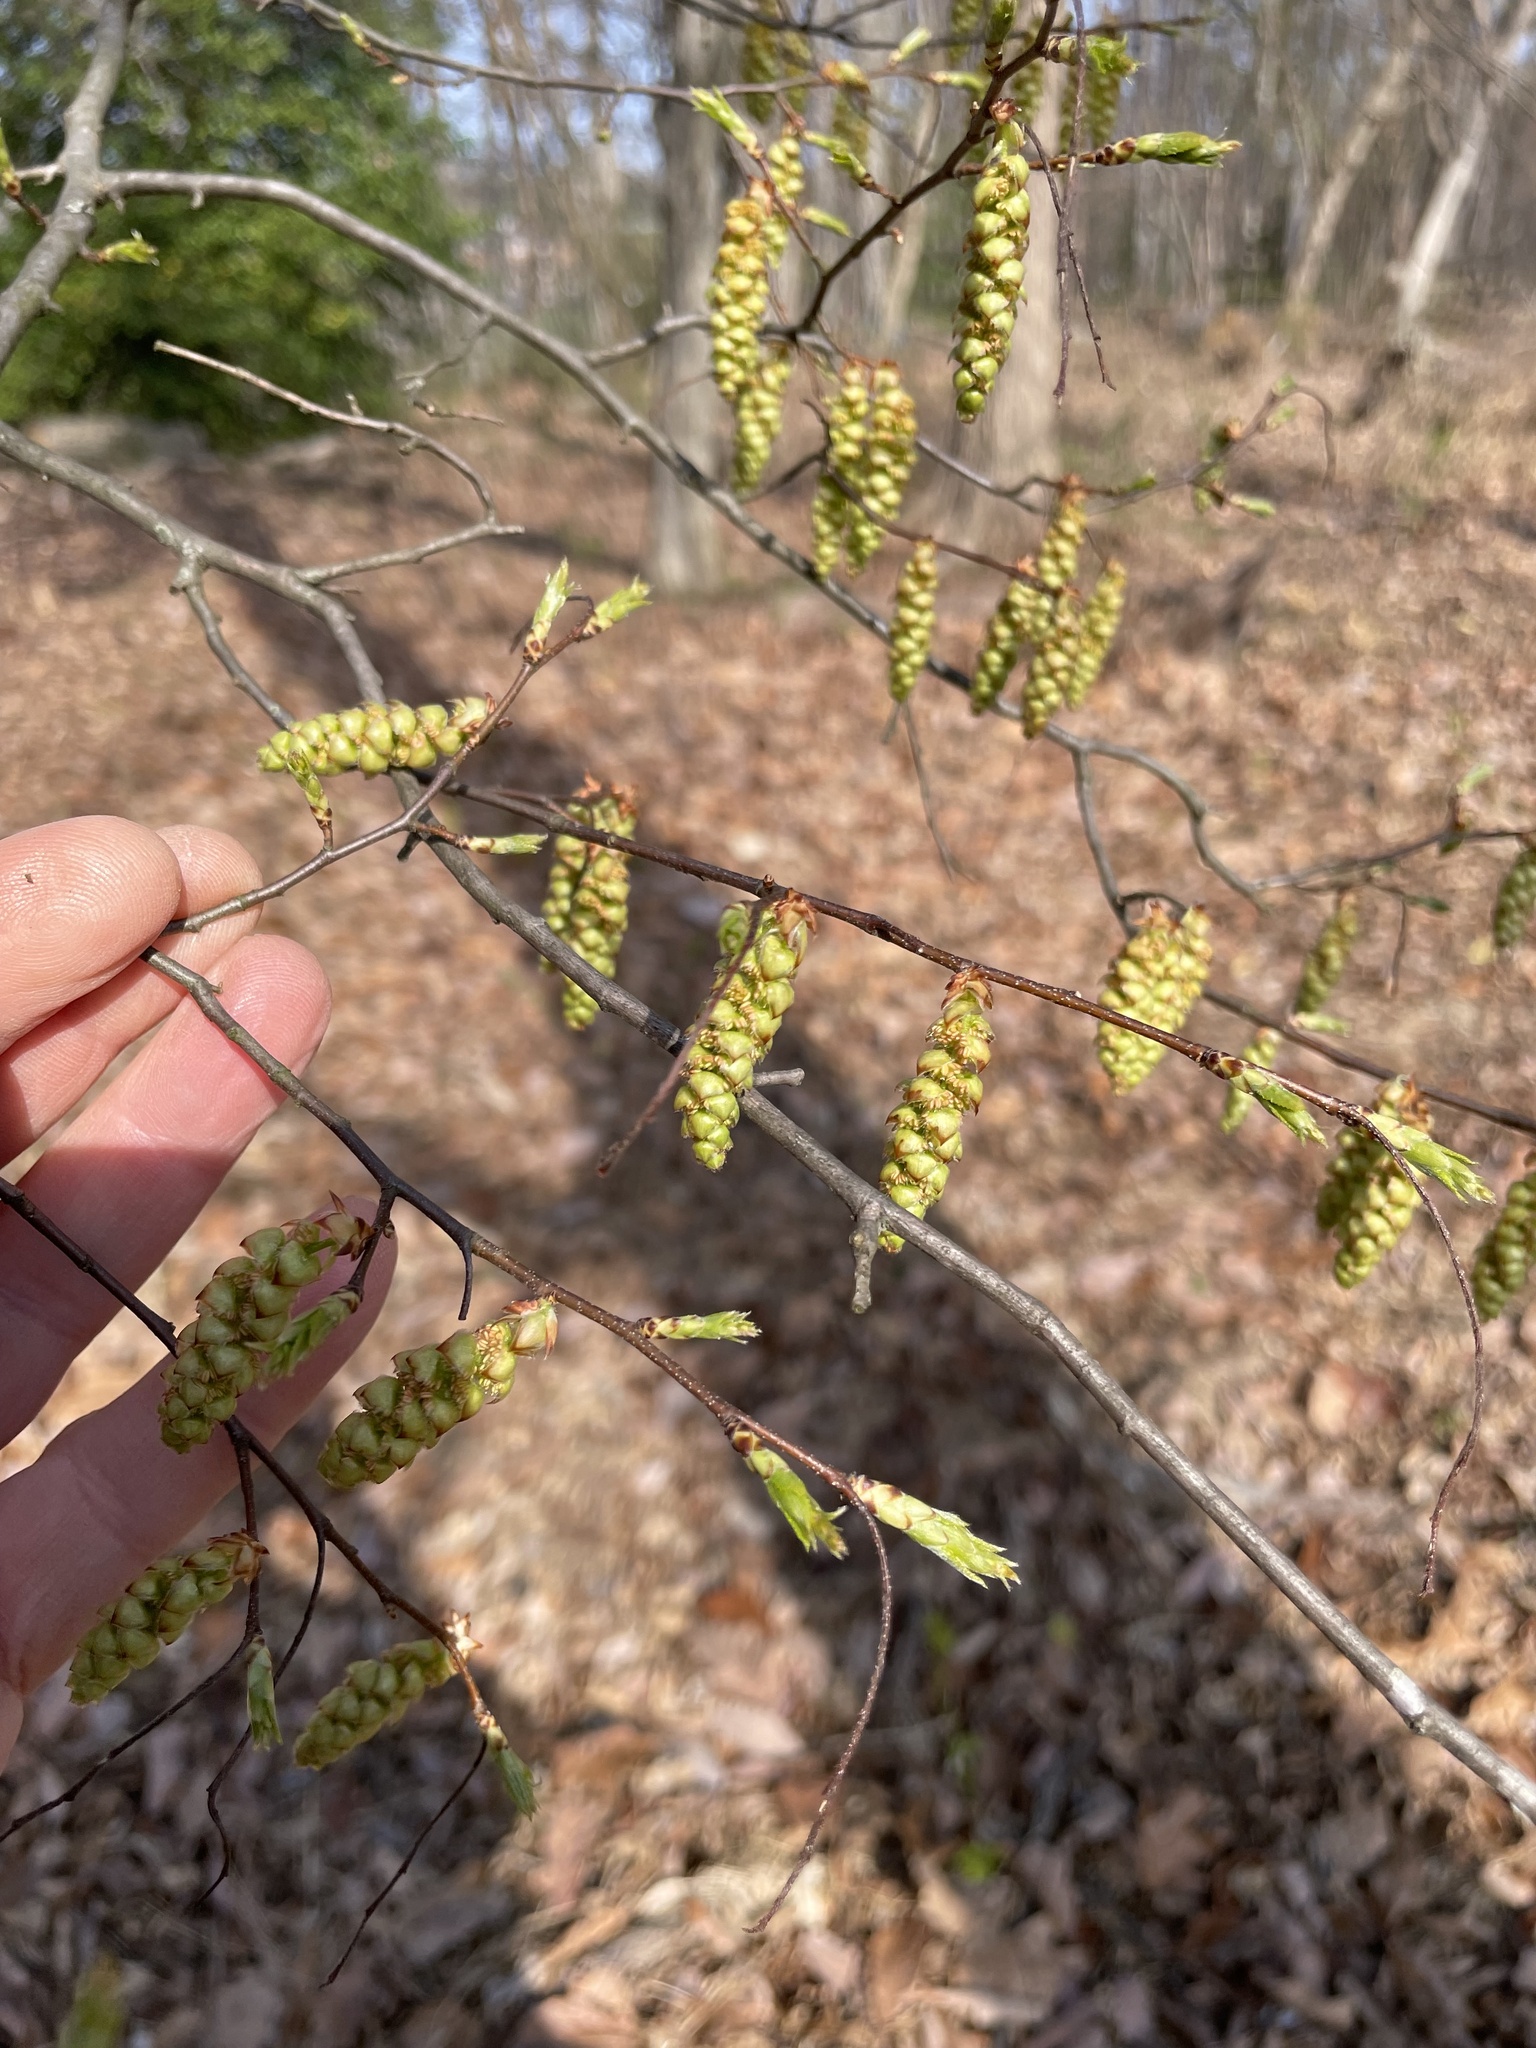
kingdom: Plantae
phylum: Tracheophyta
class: Magnoliopsida
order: Fagales
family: Betulaceae
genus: Carpinus
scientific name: Carpinus caroliniana
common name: American hornbeam
